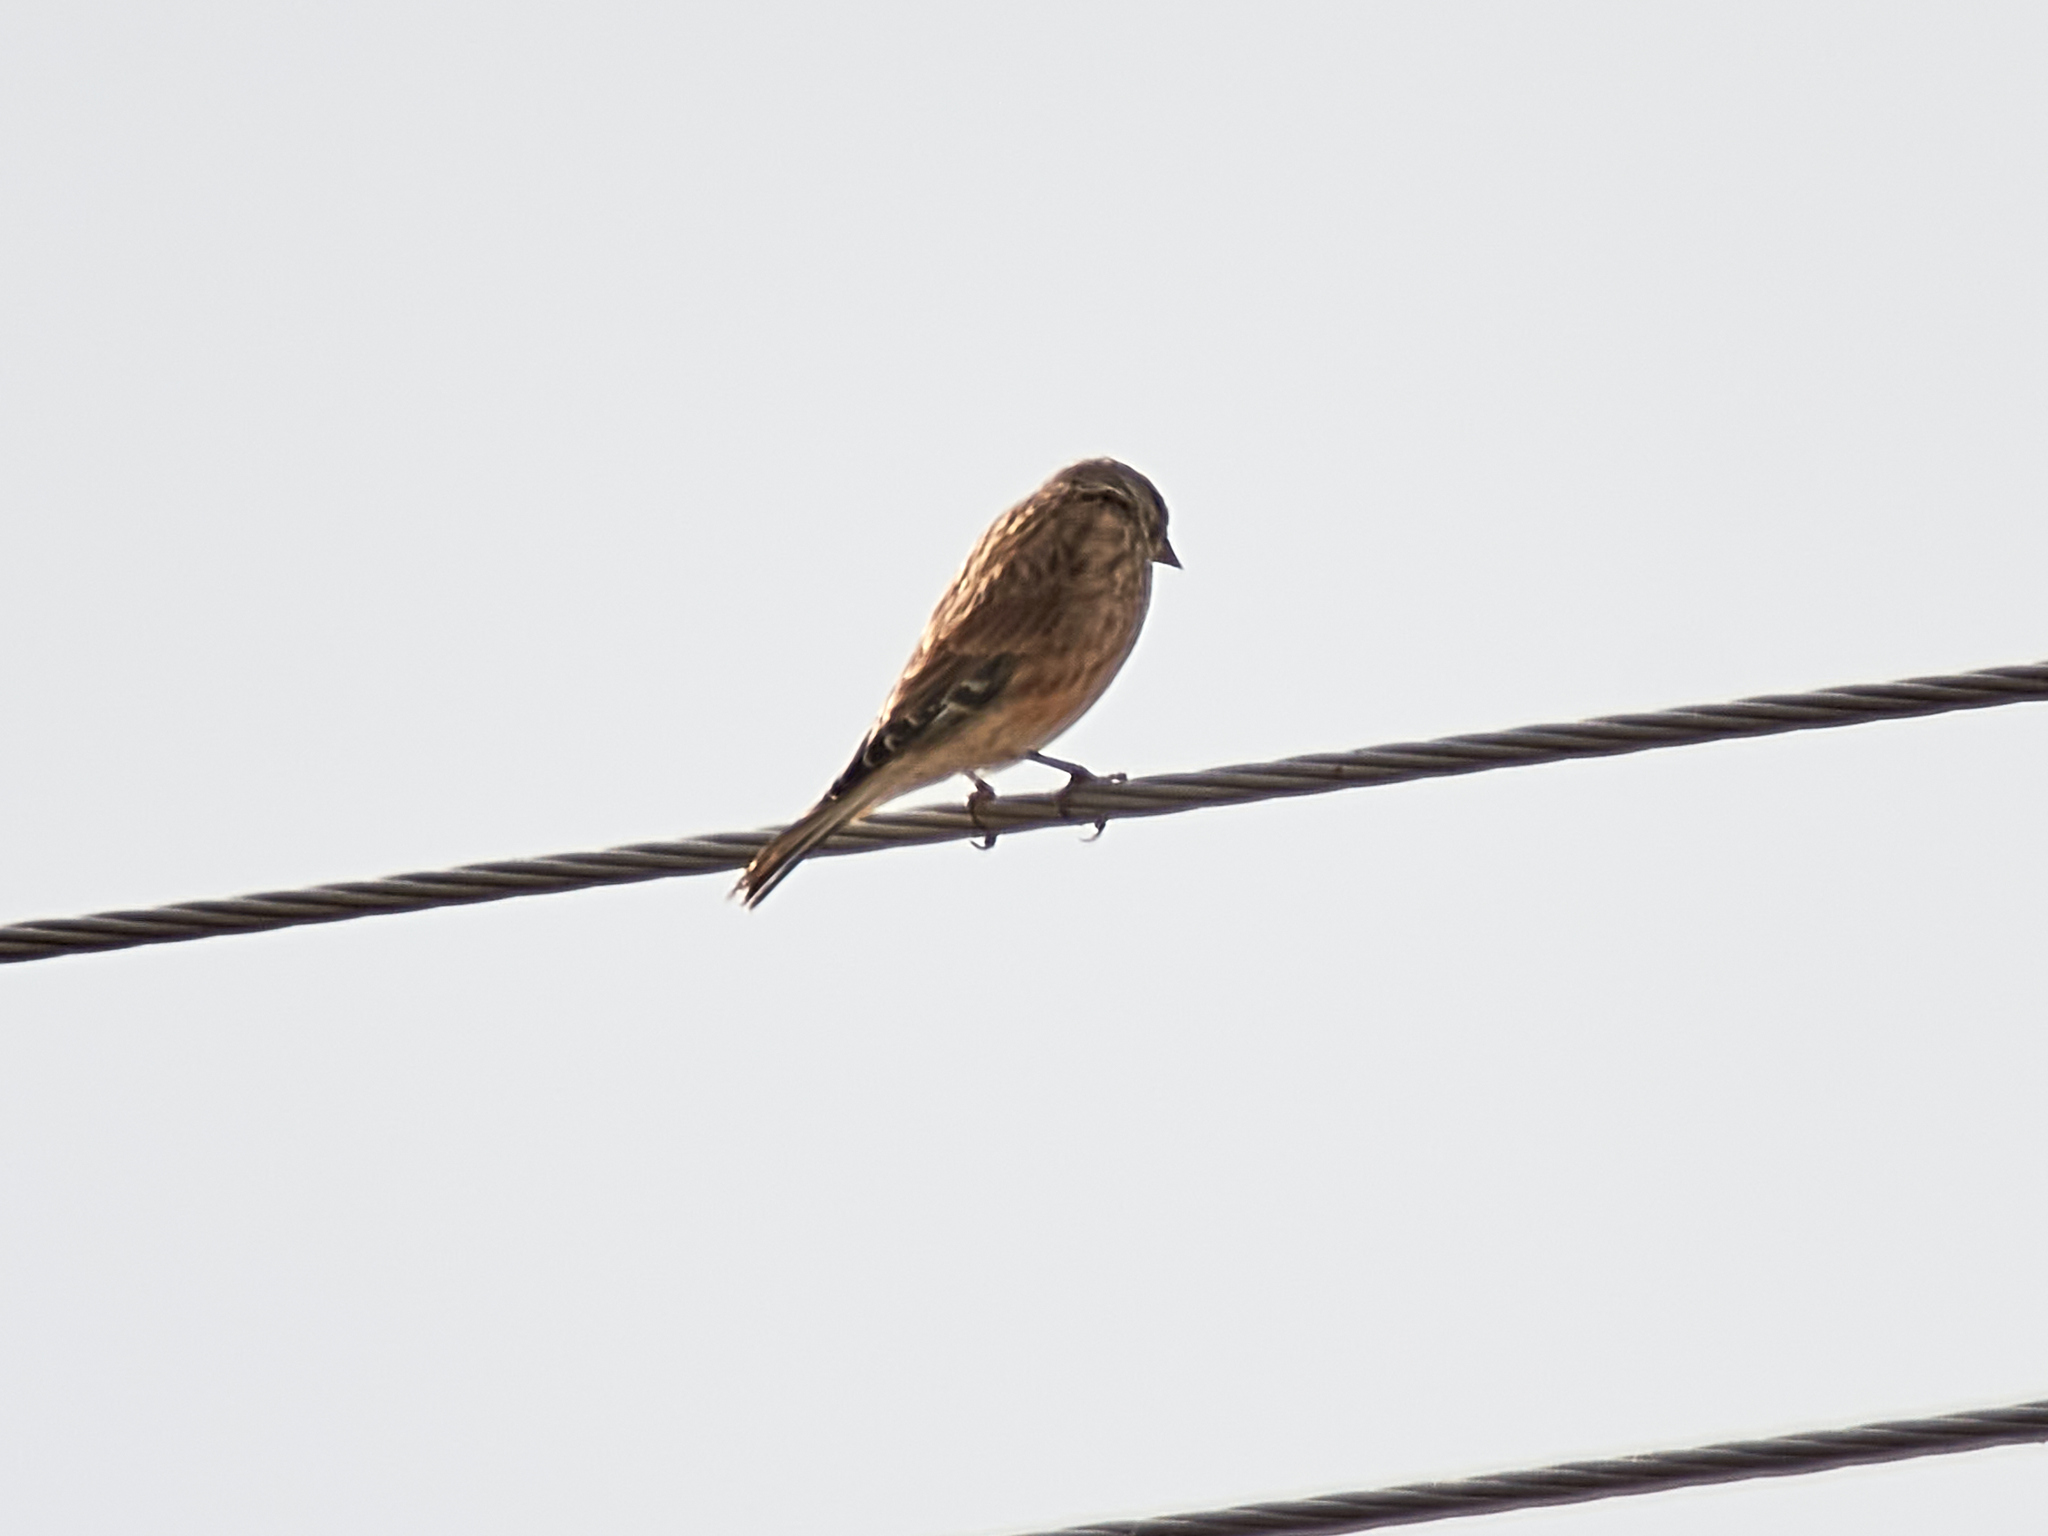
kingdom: Animalia
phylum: Chordata
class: Aves
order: Passeriformes
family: Fringillidae
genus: Linaria
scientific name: Linaria cannabina
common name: Common linnet
